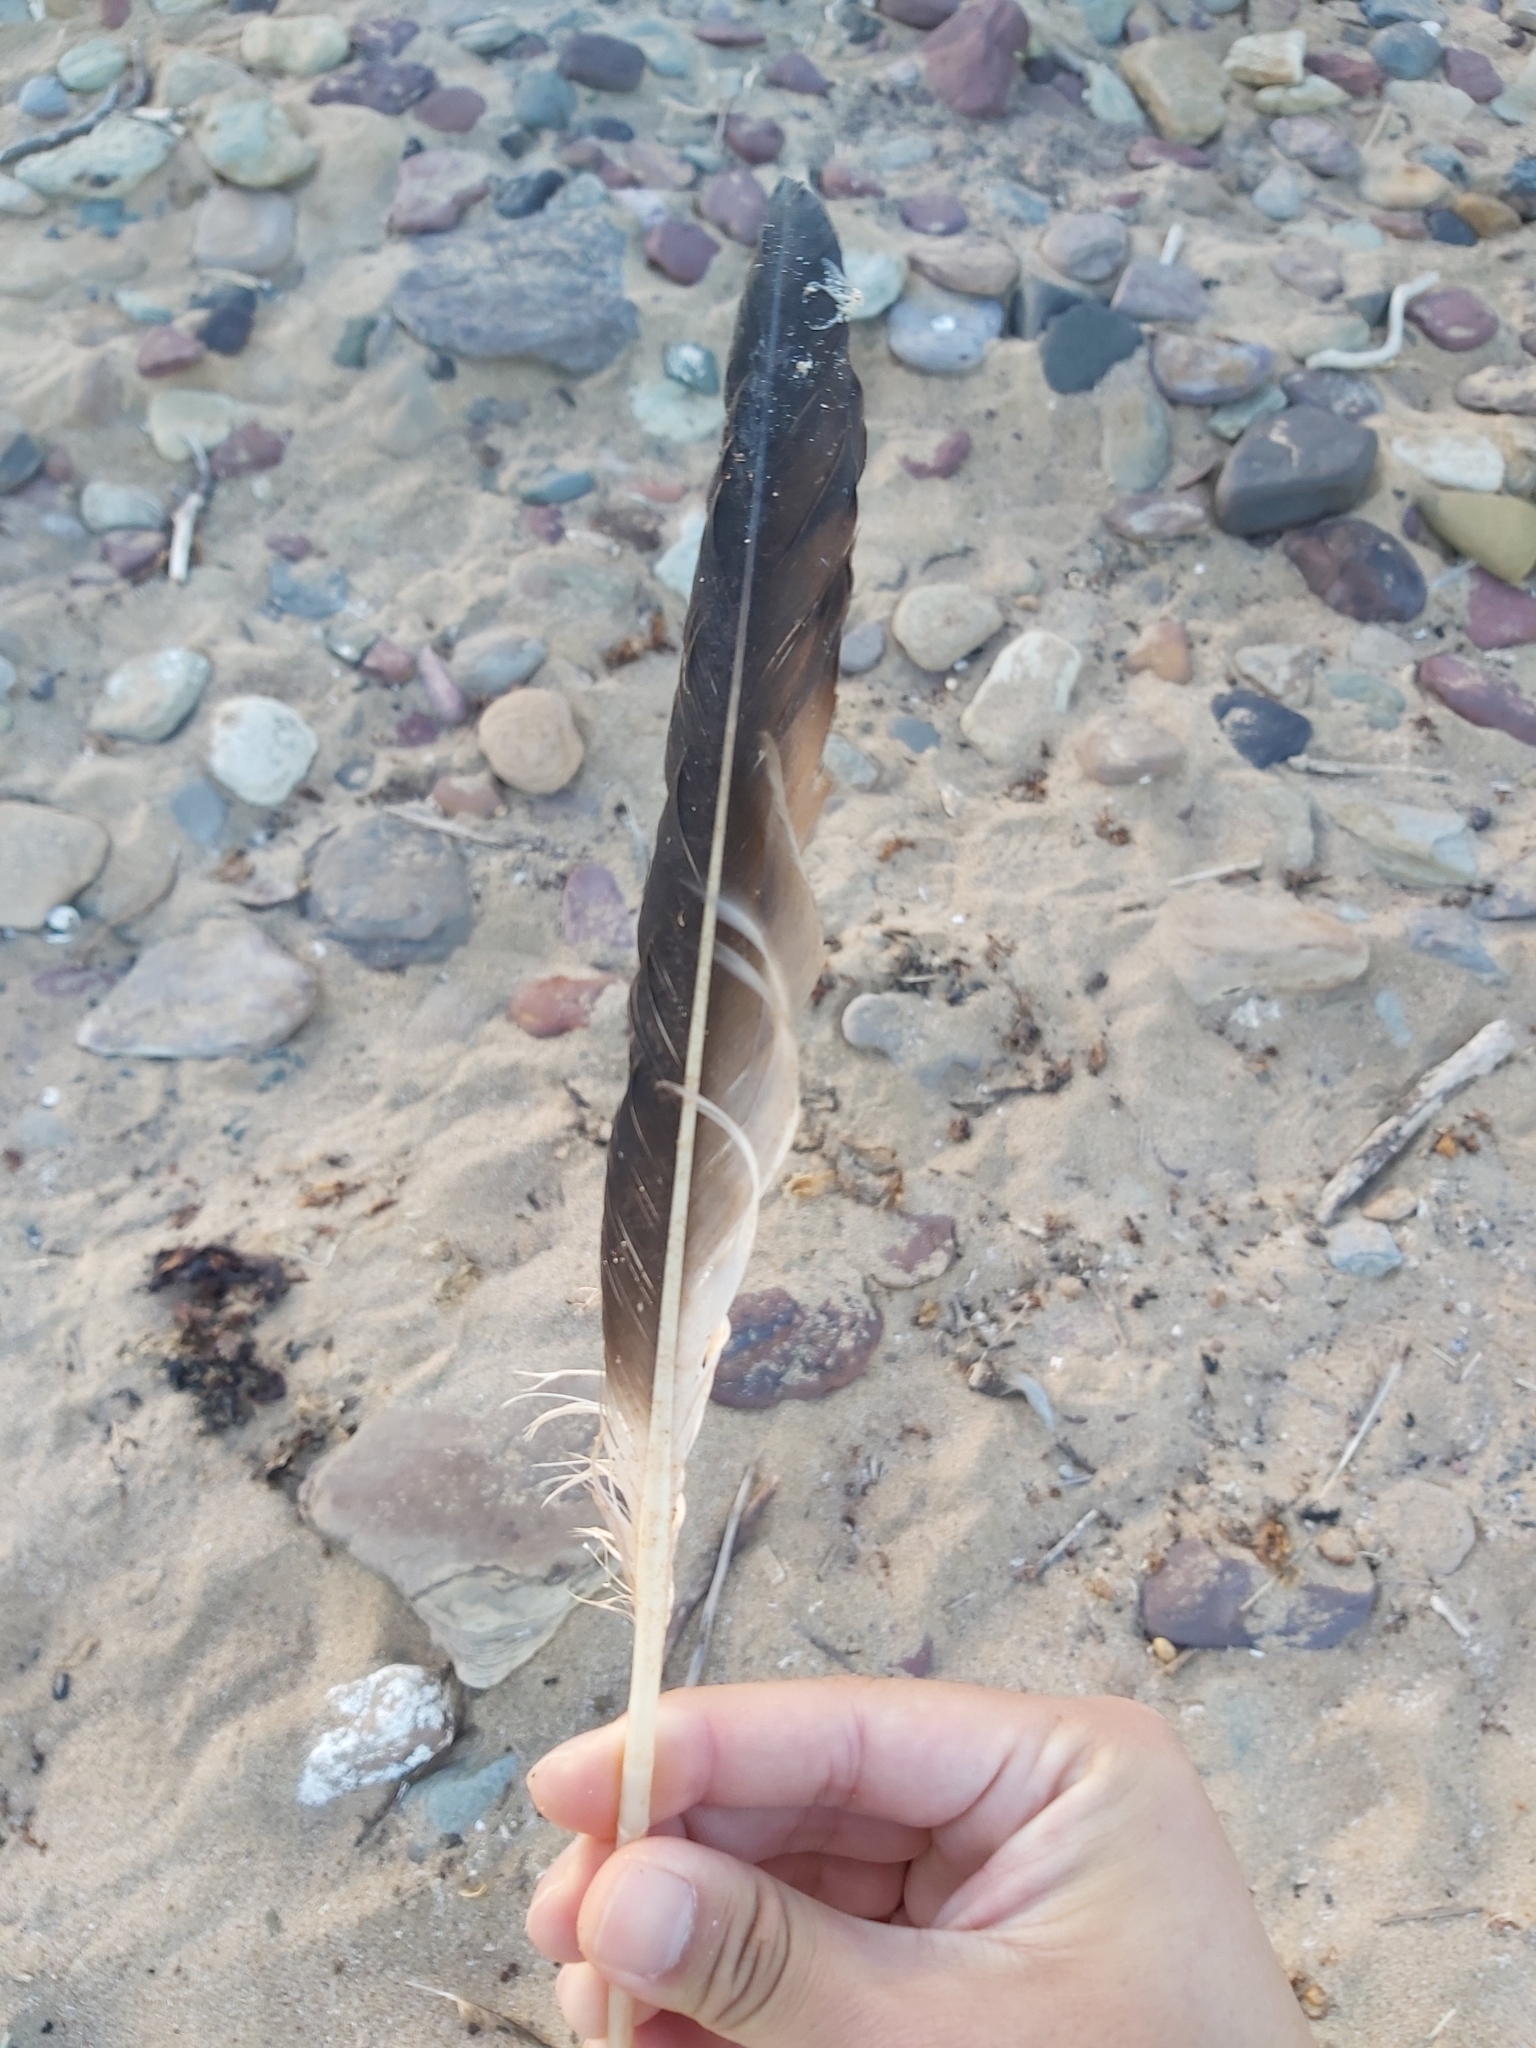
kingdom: Animalia
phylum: Chordata
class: Aves
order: Suliformes
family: Sulidae
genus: Morus
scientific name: Morus serrator
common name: Australasian gannet
